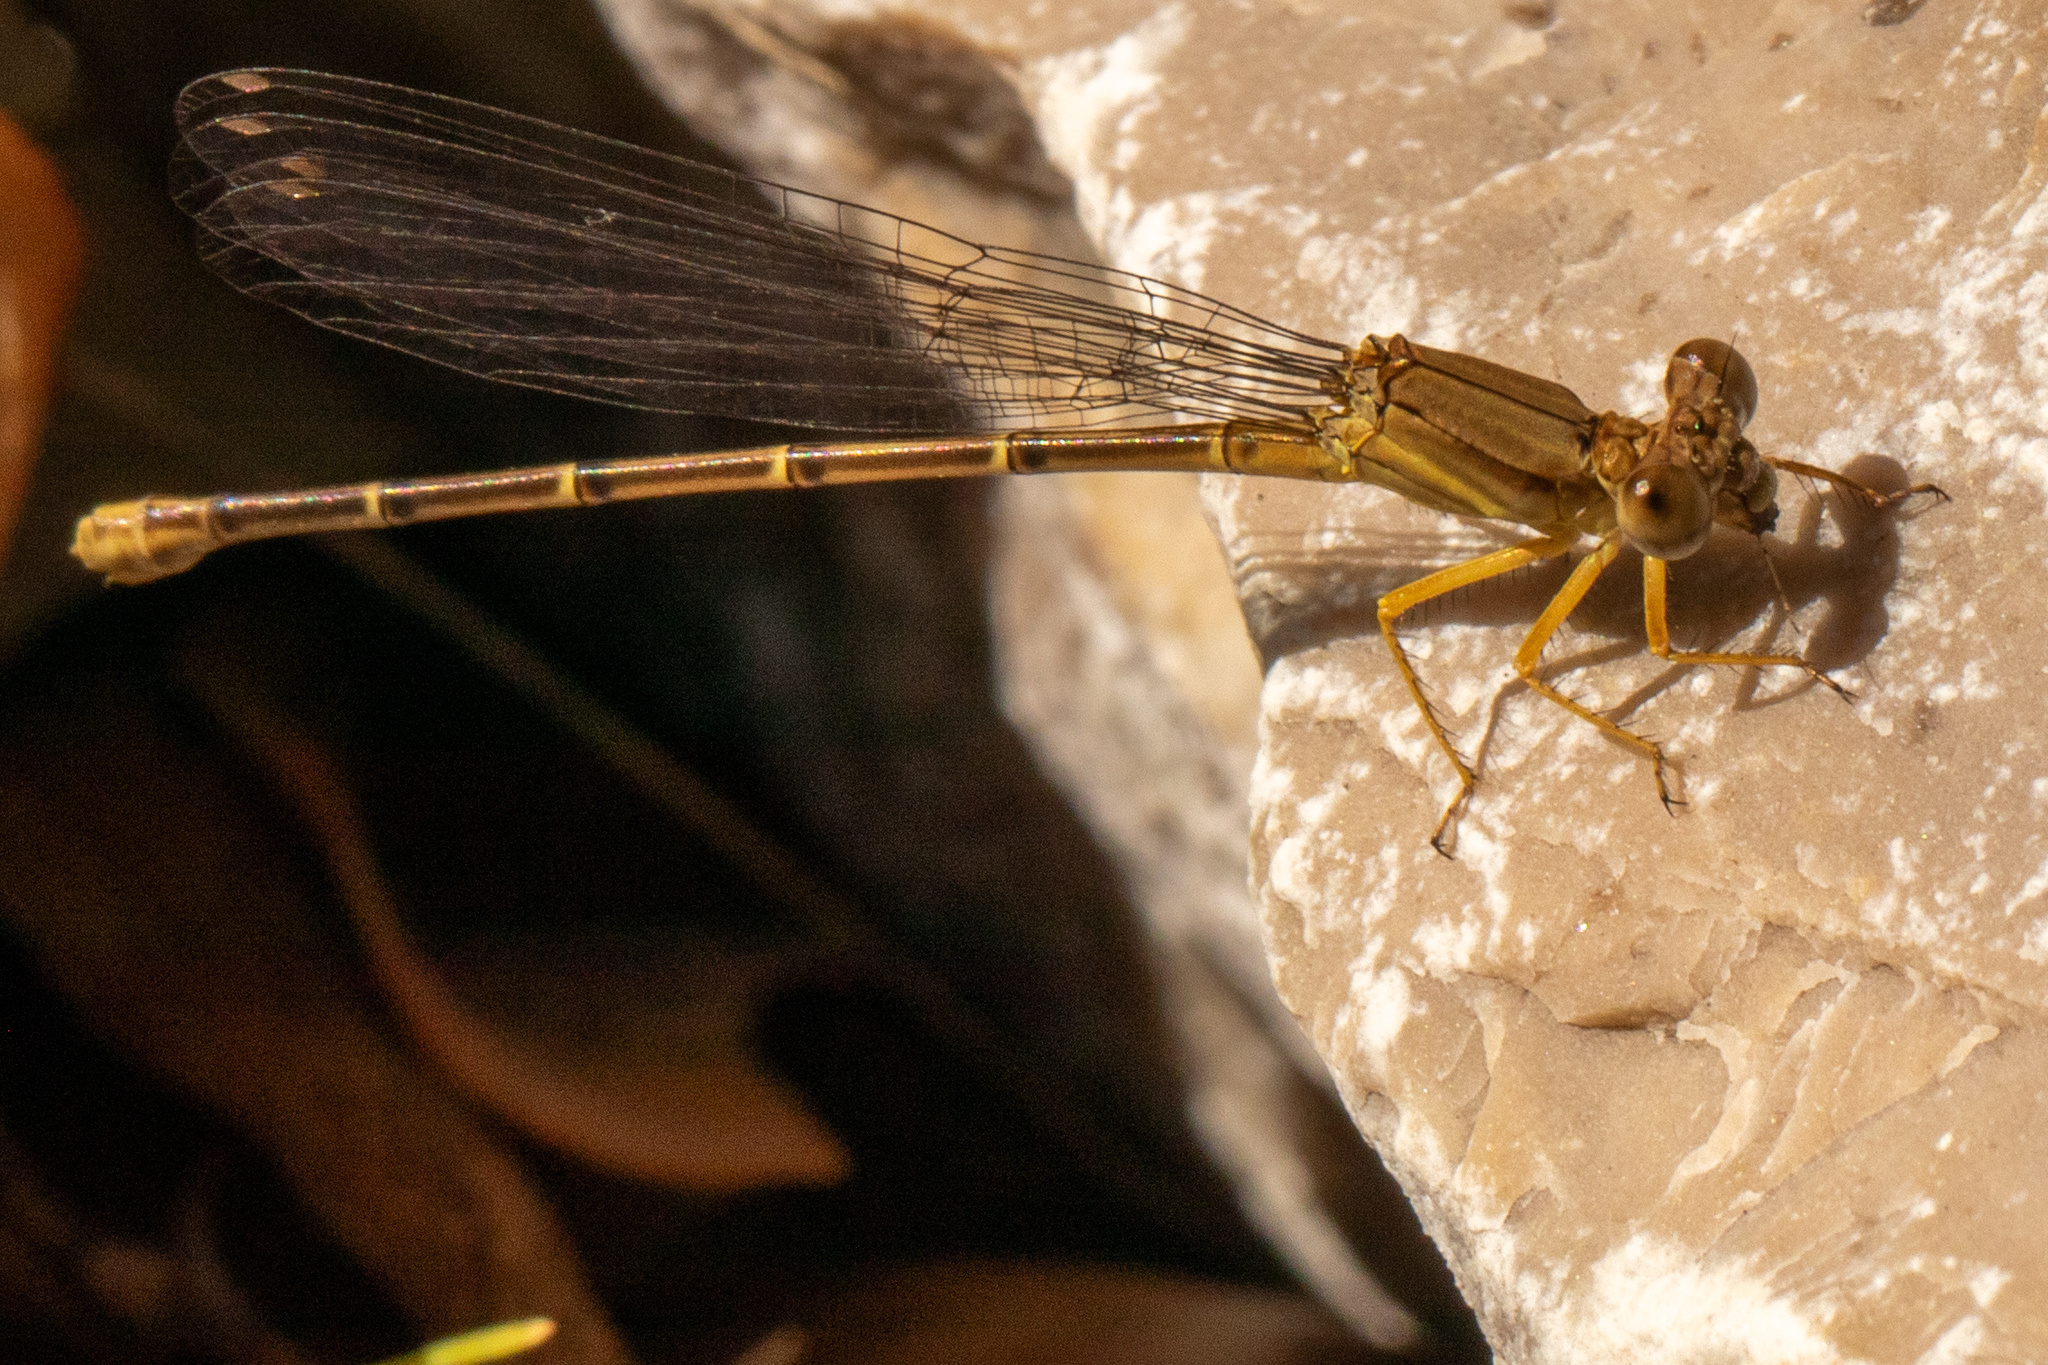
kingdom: Animalia
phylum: Arthropoda
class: Insecta
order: Odonata
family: Coenagrionidae
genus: Argia
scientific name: Argia apicalis
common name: Blue-fronted dancer
